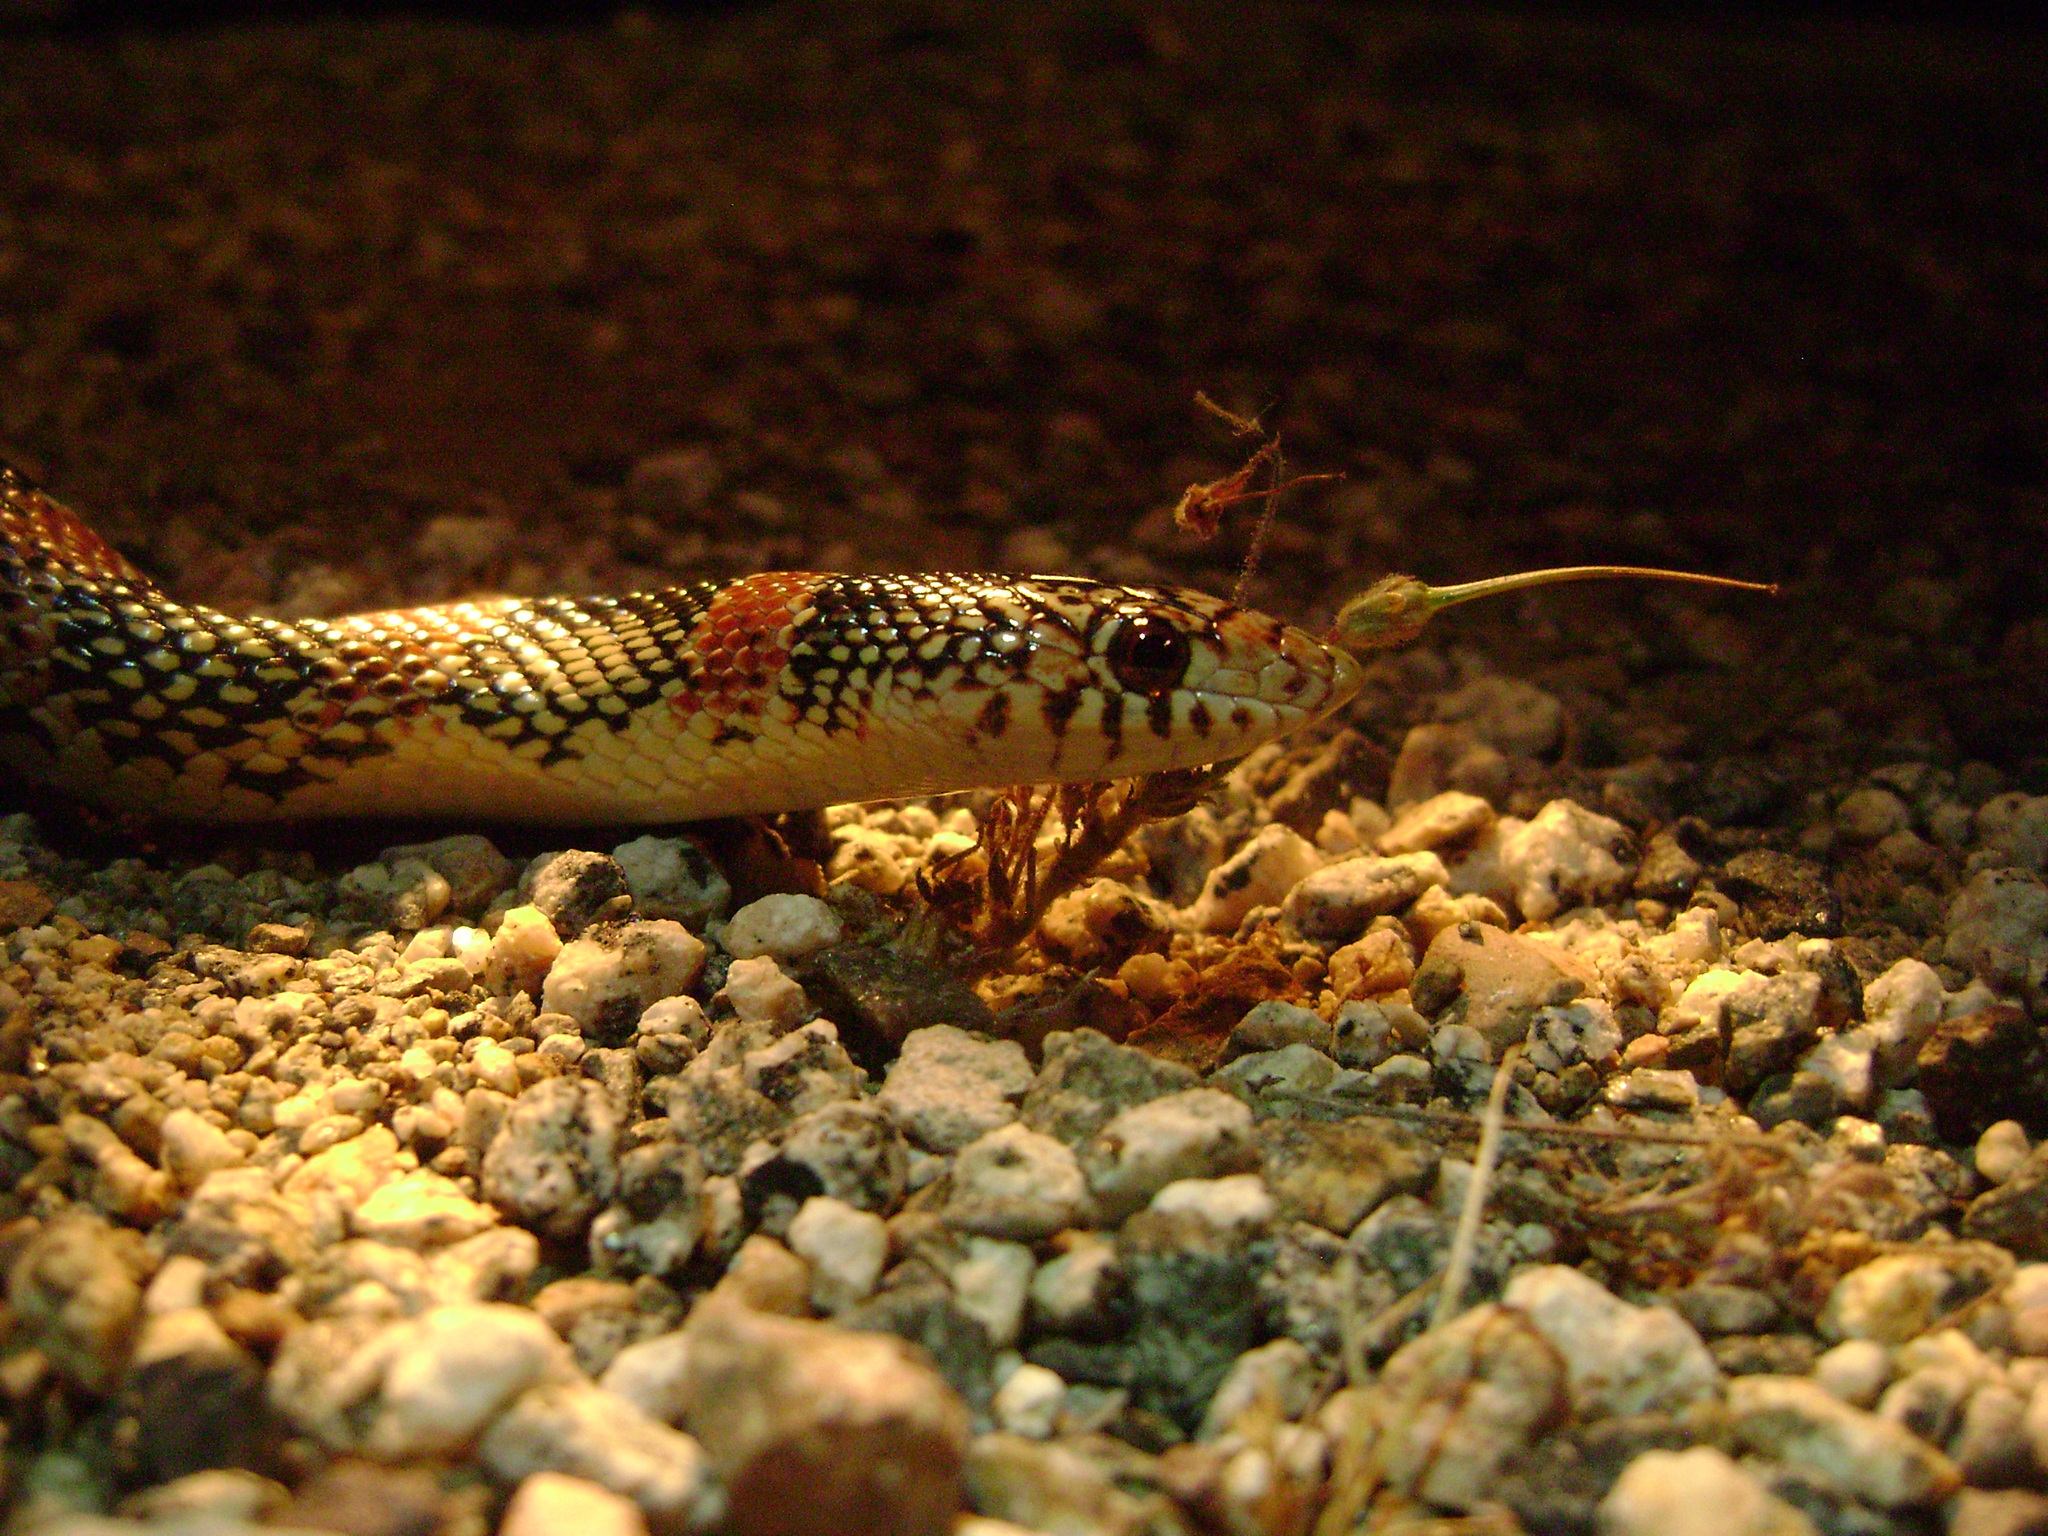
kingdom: Animalia
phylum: Chordata
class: Squamata
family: Colubridae
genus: Rhinocheilus
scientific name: Rhinocheilus lecontei
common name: Longnose snake
